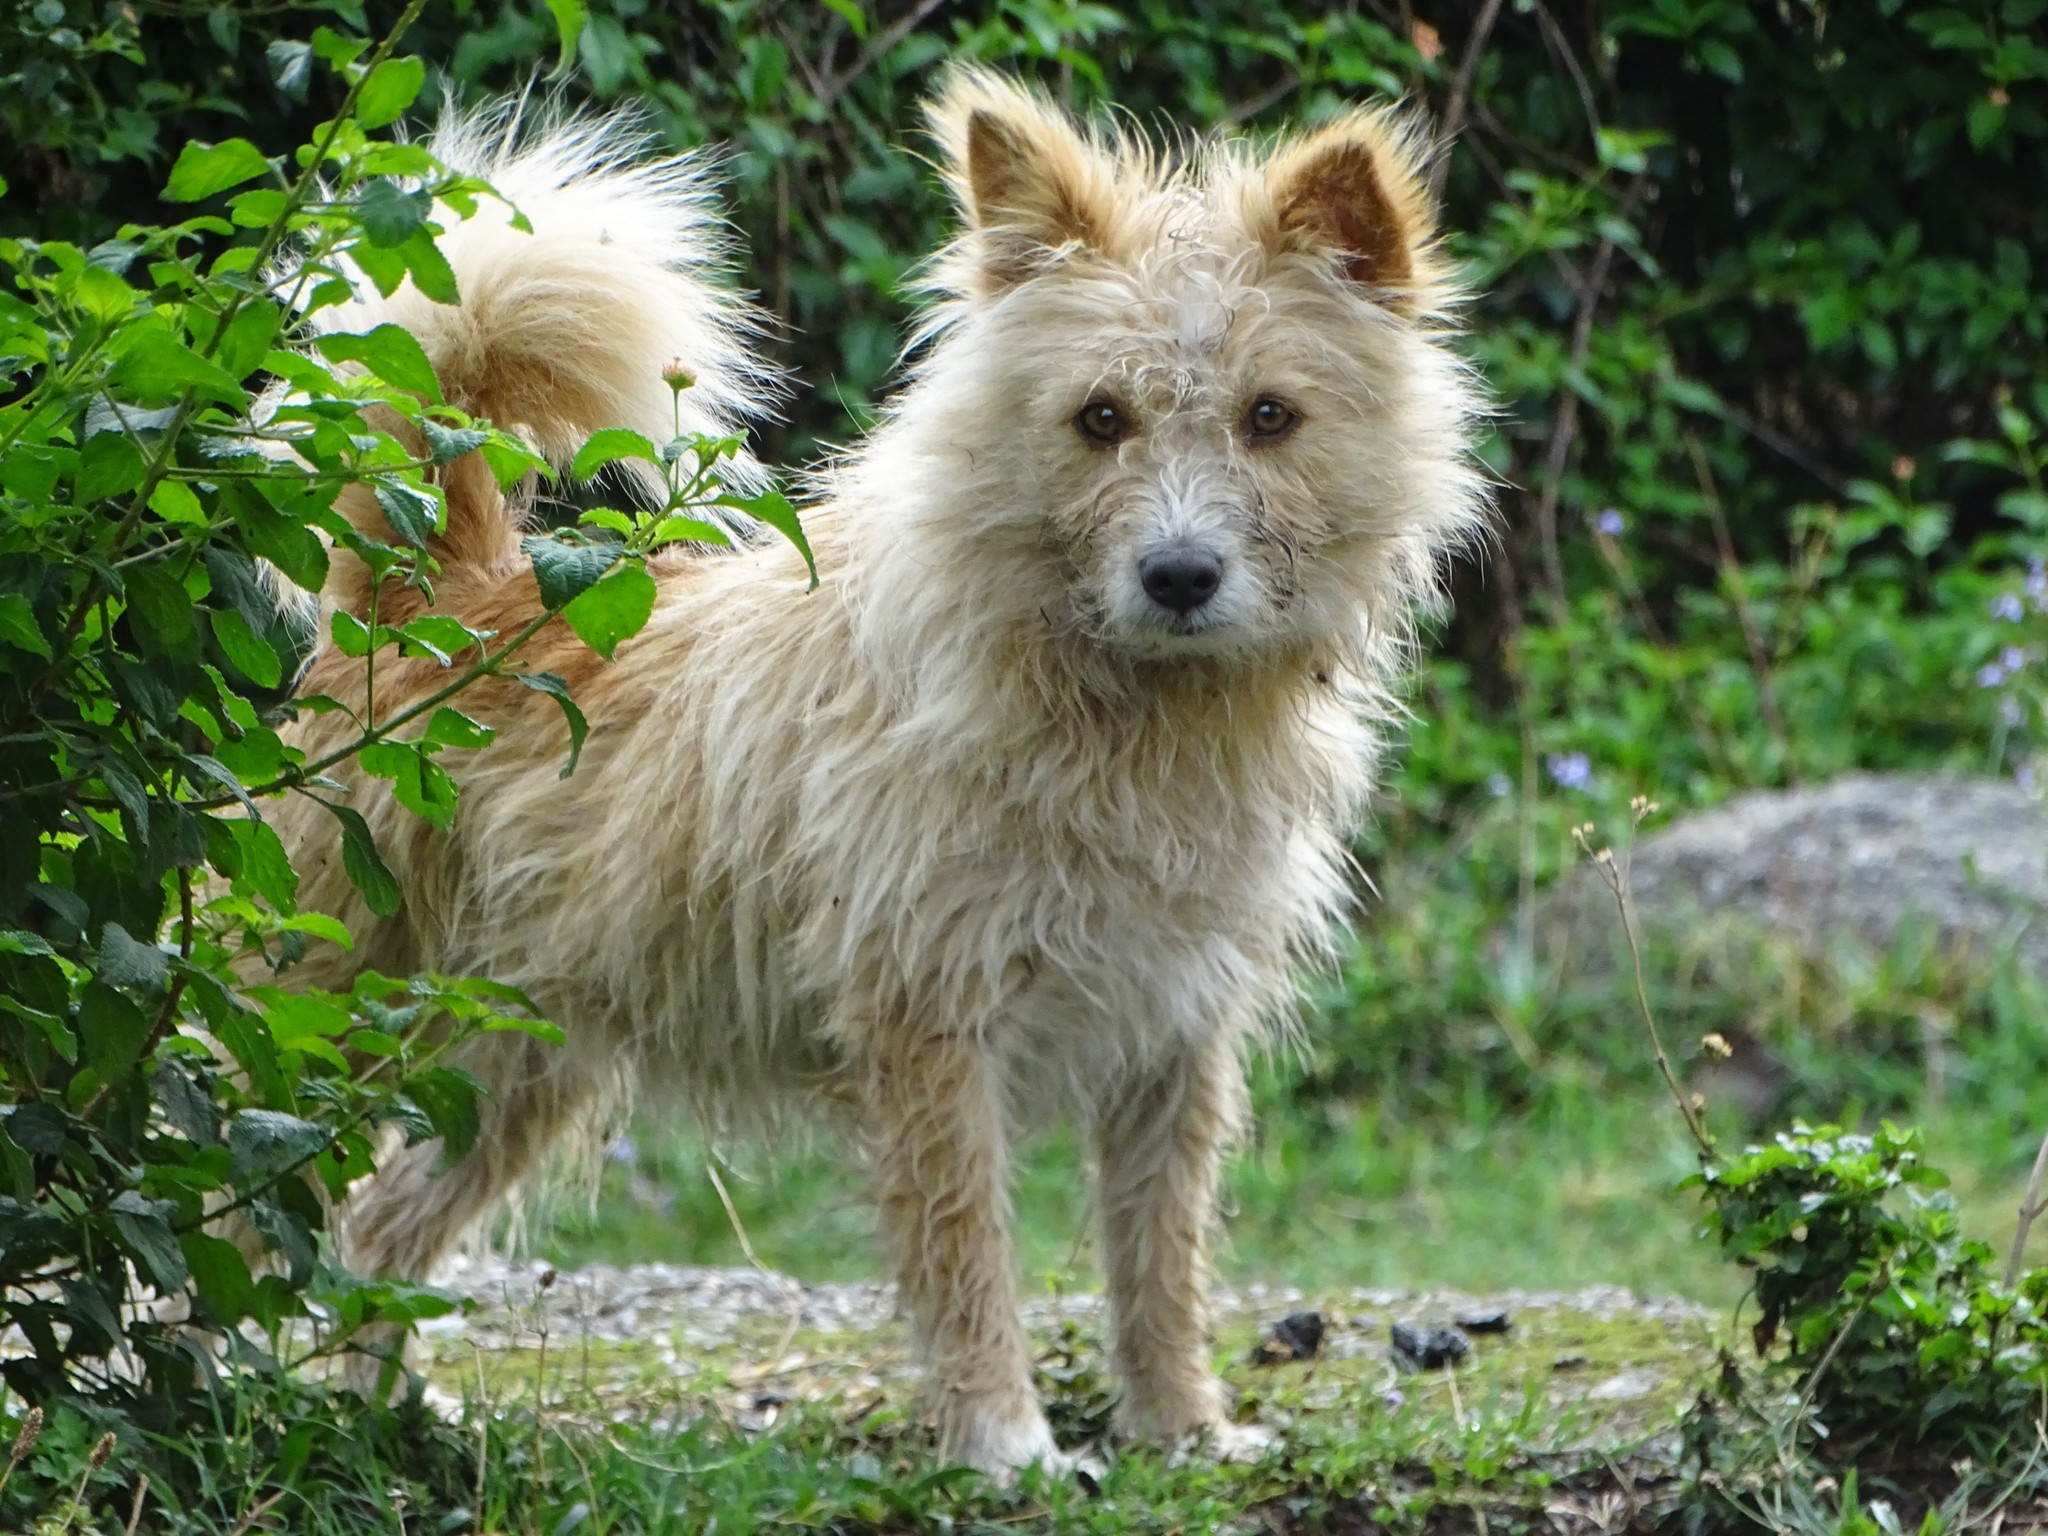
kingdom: Animalia
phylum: Chordata
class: Mammalia
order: Carnivora
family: Canidae
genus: Canis
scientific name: Canis lupus
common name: Gray wolf
